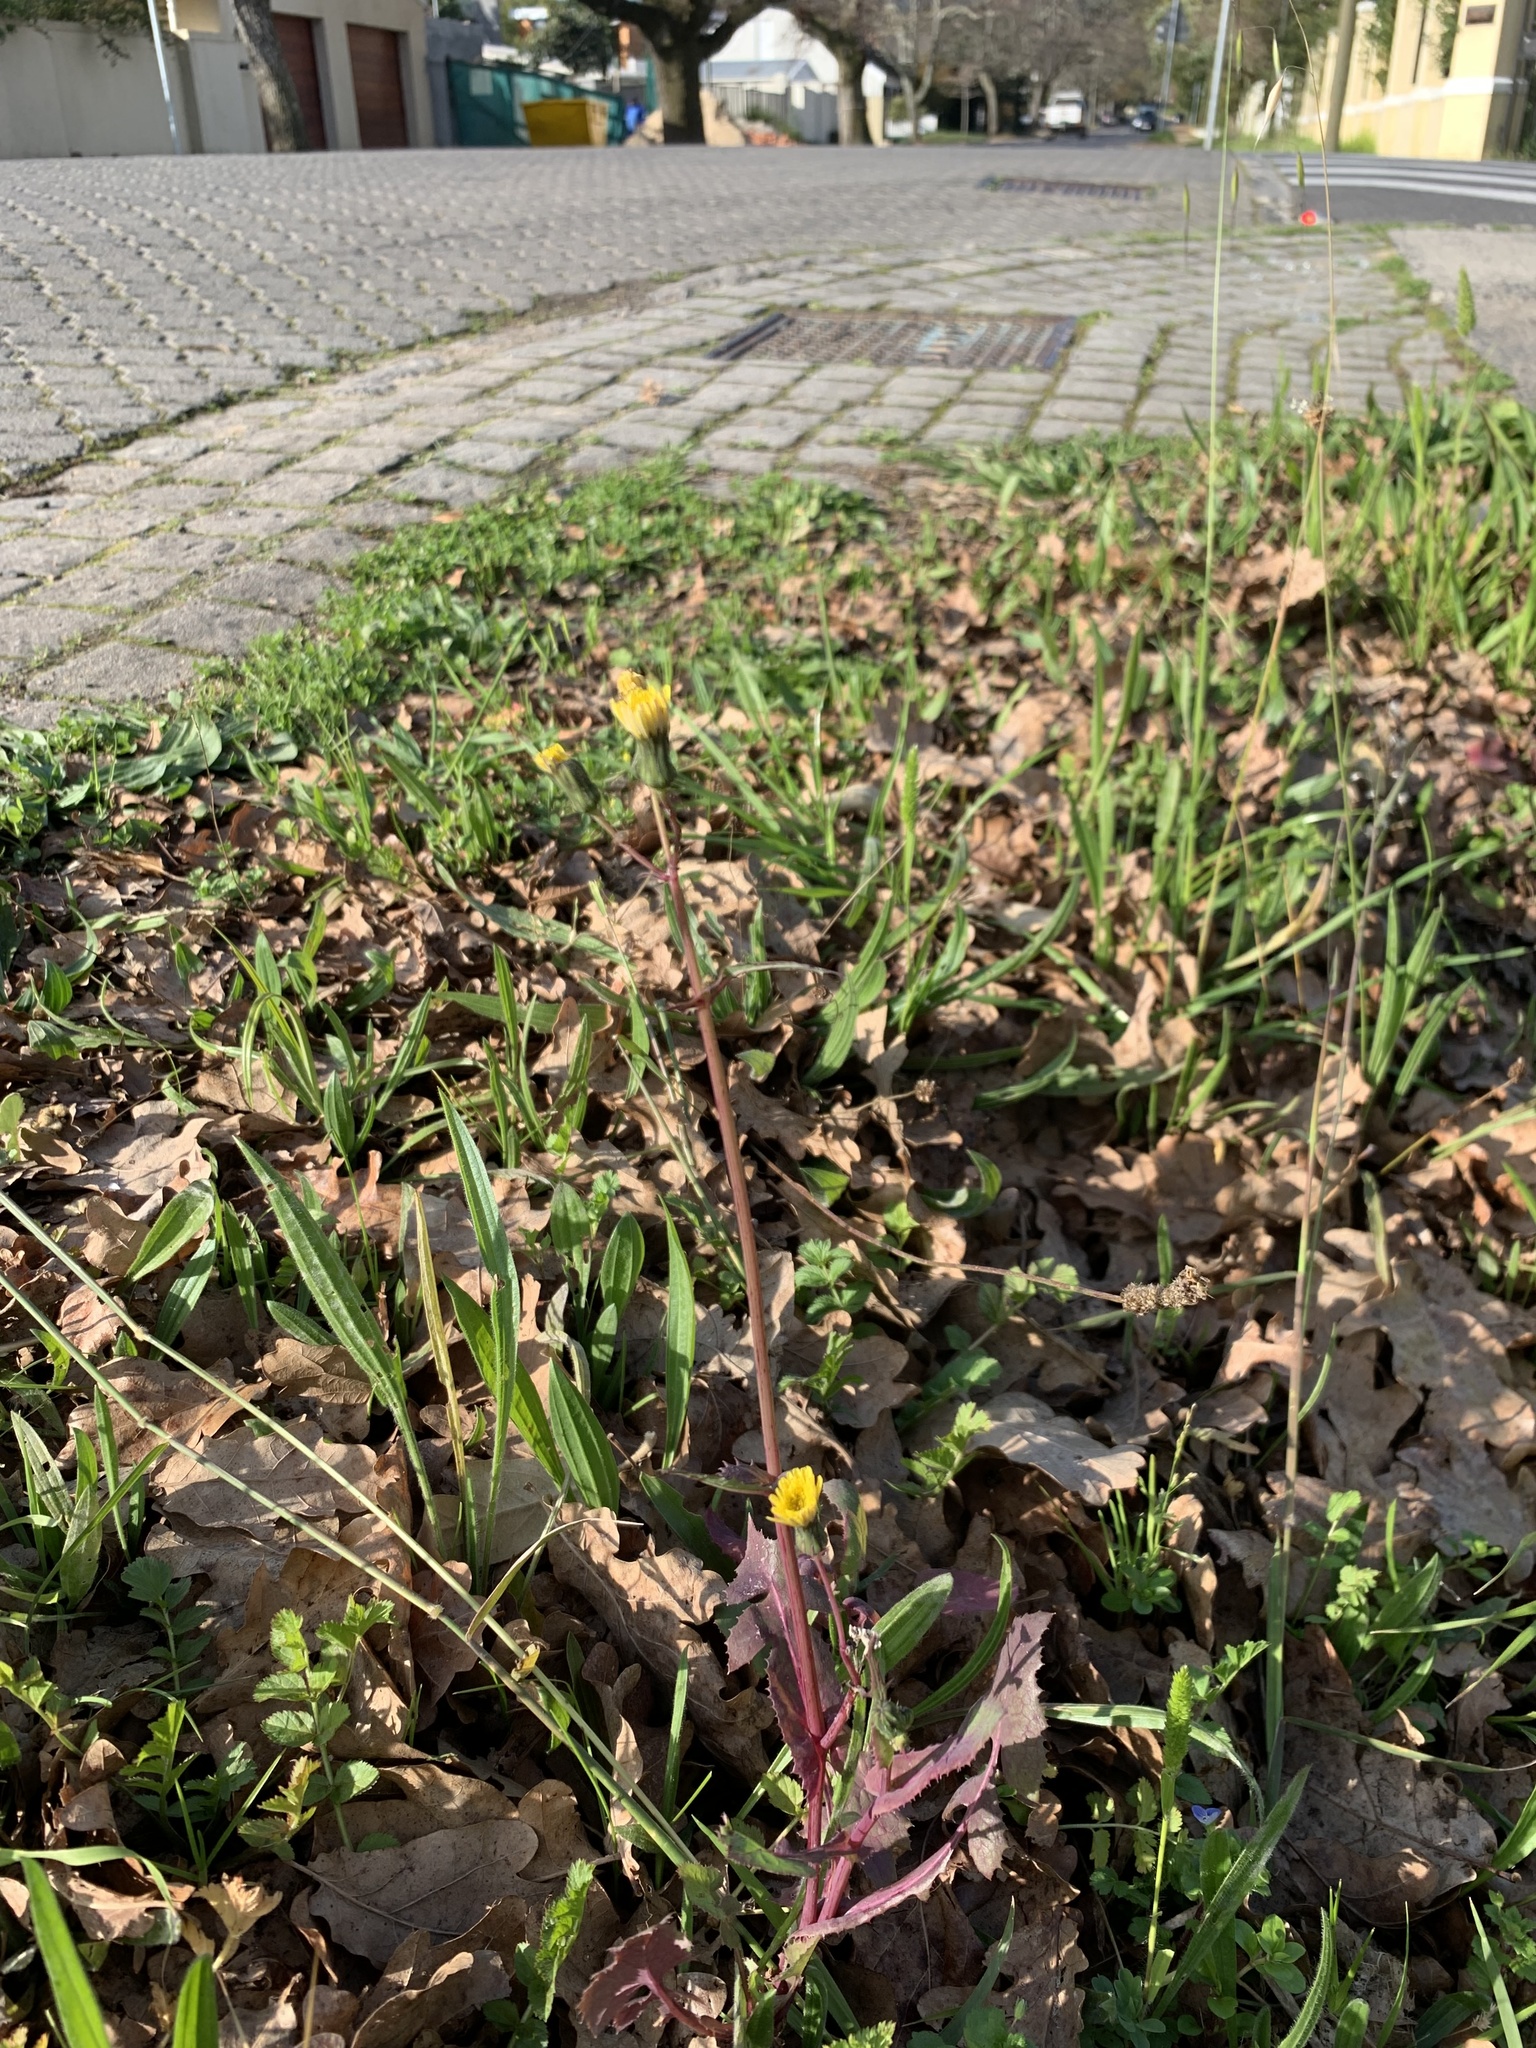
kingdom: Plantae
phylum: Tracheophyta
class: Magnoliopsida
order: Asterales
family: Asteraceae
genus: Sonchus
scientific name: Sonchus oleraceus
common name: Common sowthistle
